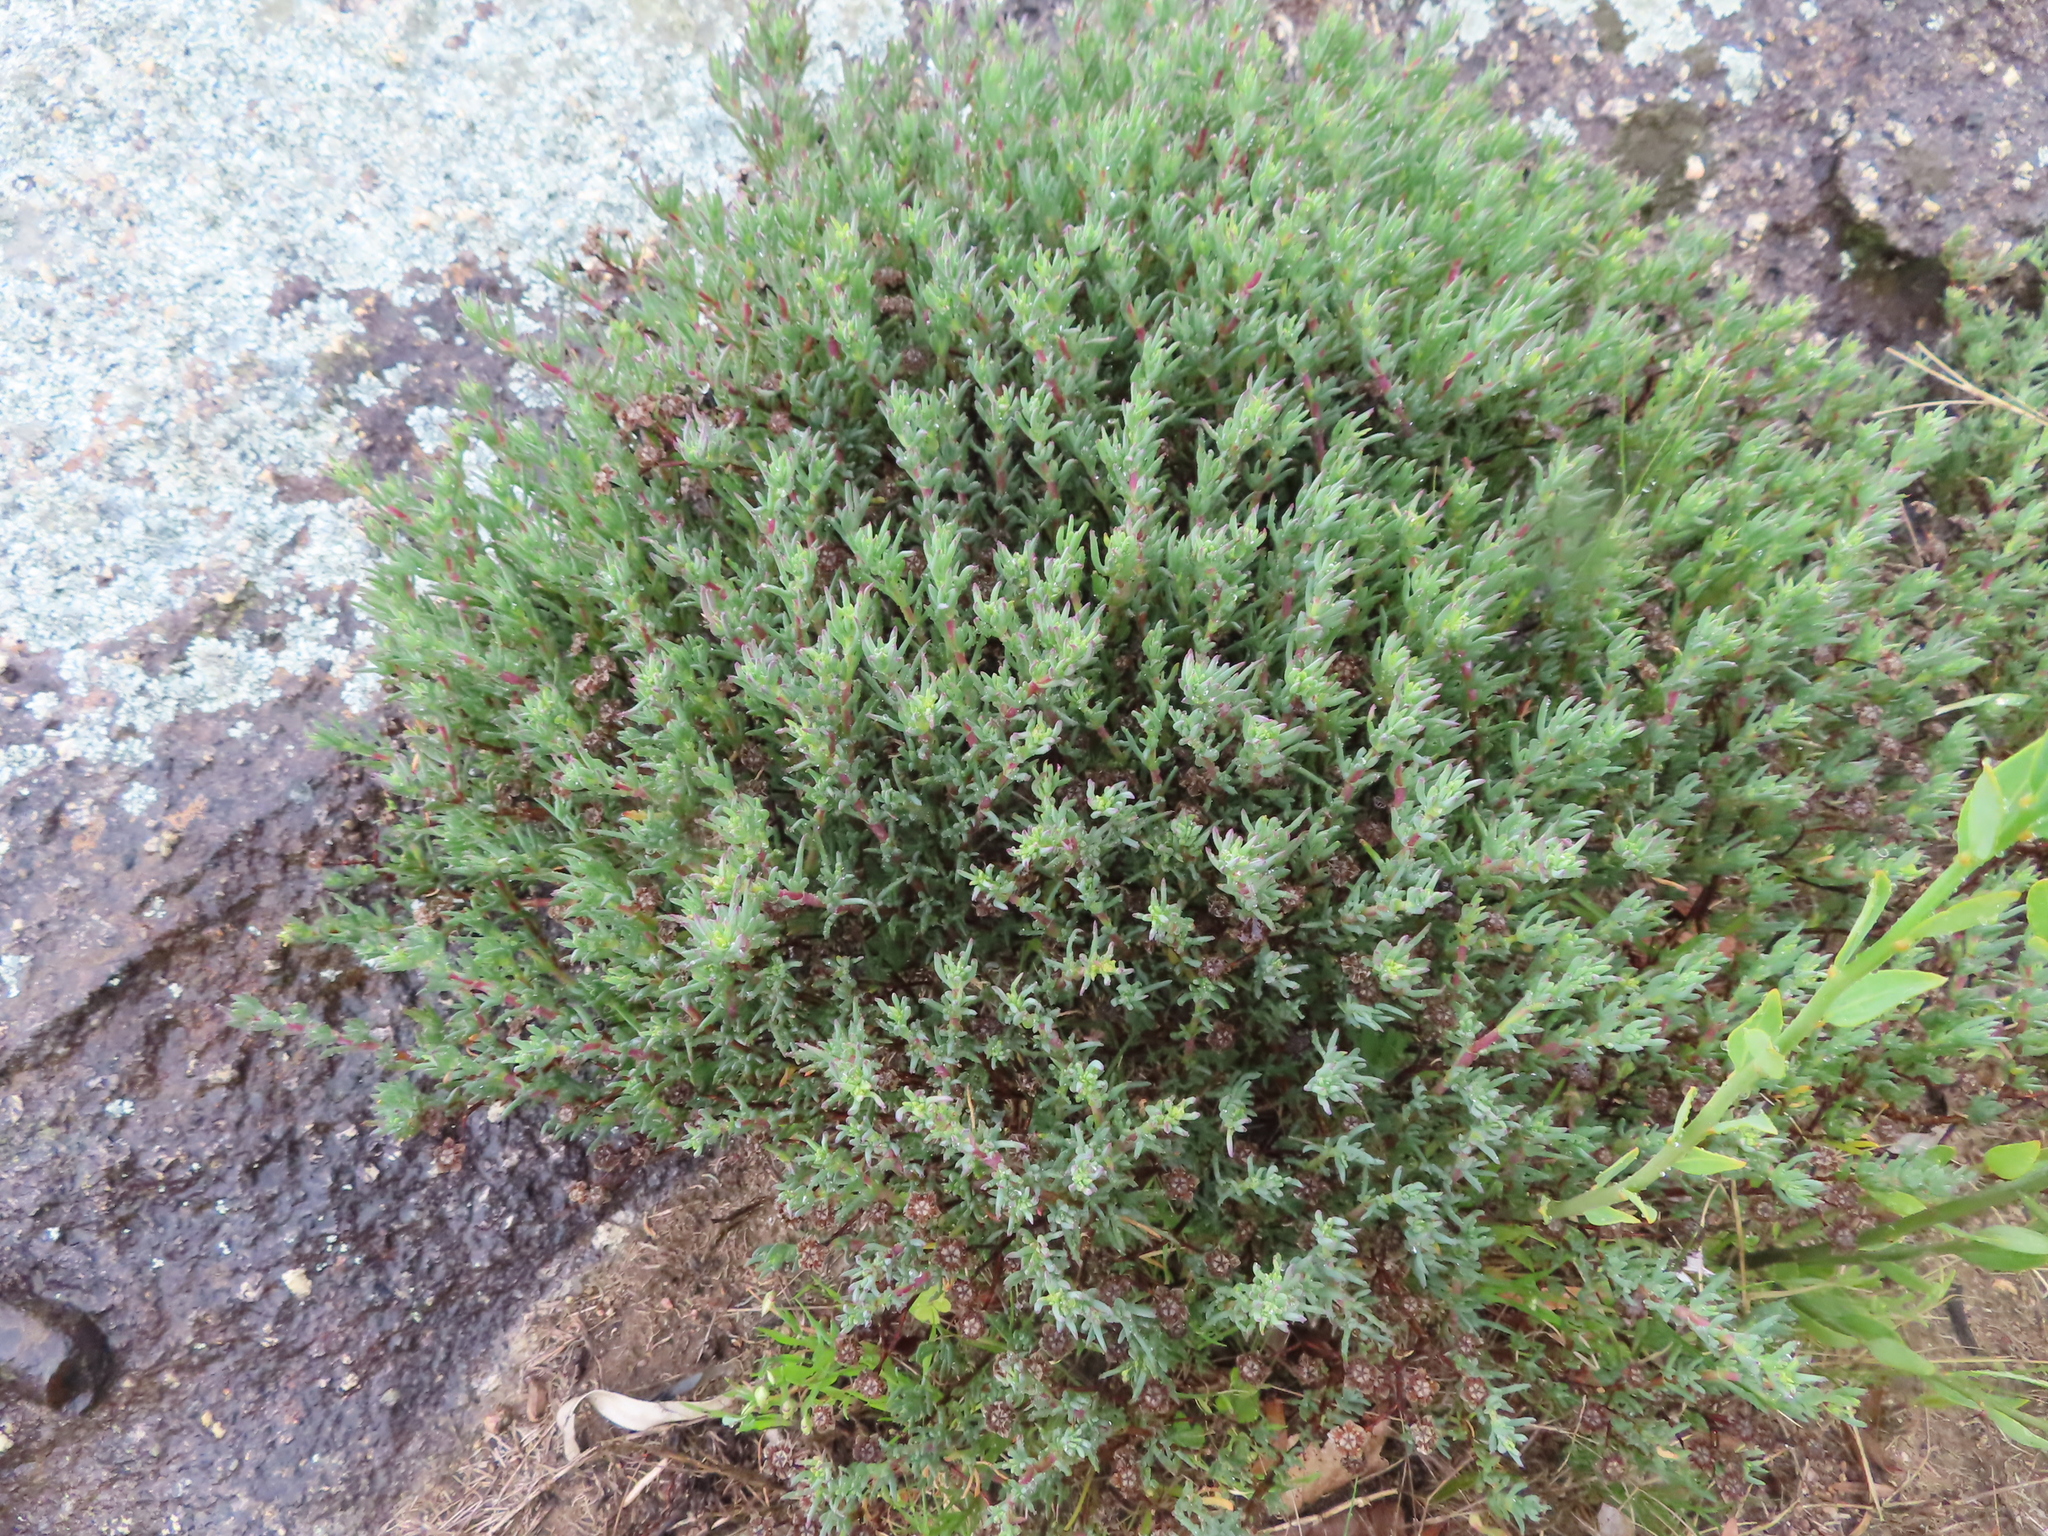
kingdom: Plantae
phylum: Tracheophyta
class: Magnoliopsida
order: Caryophyllales
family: Aizoaceae
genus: Lampranthus
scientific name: Lampranthus emarginatus
